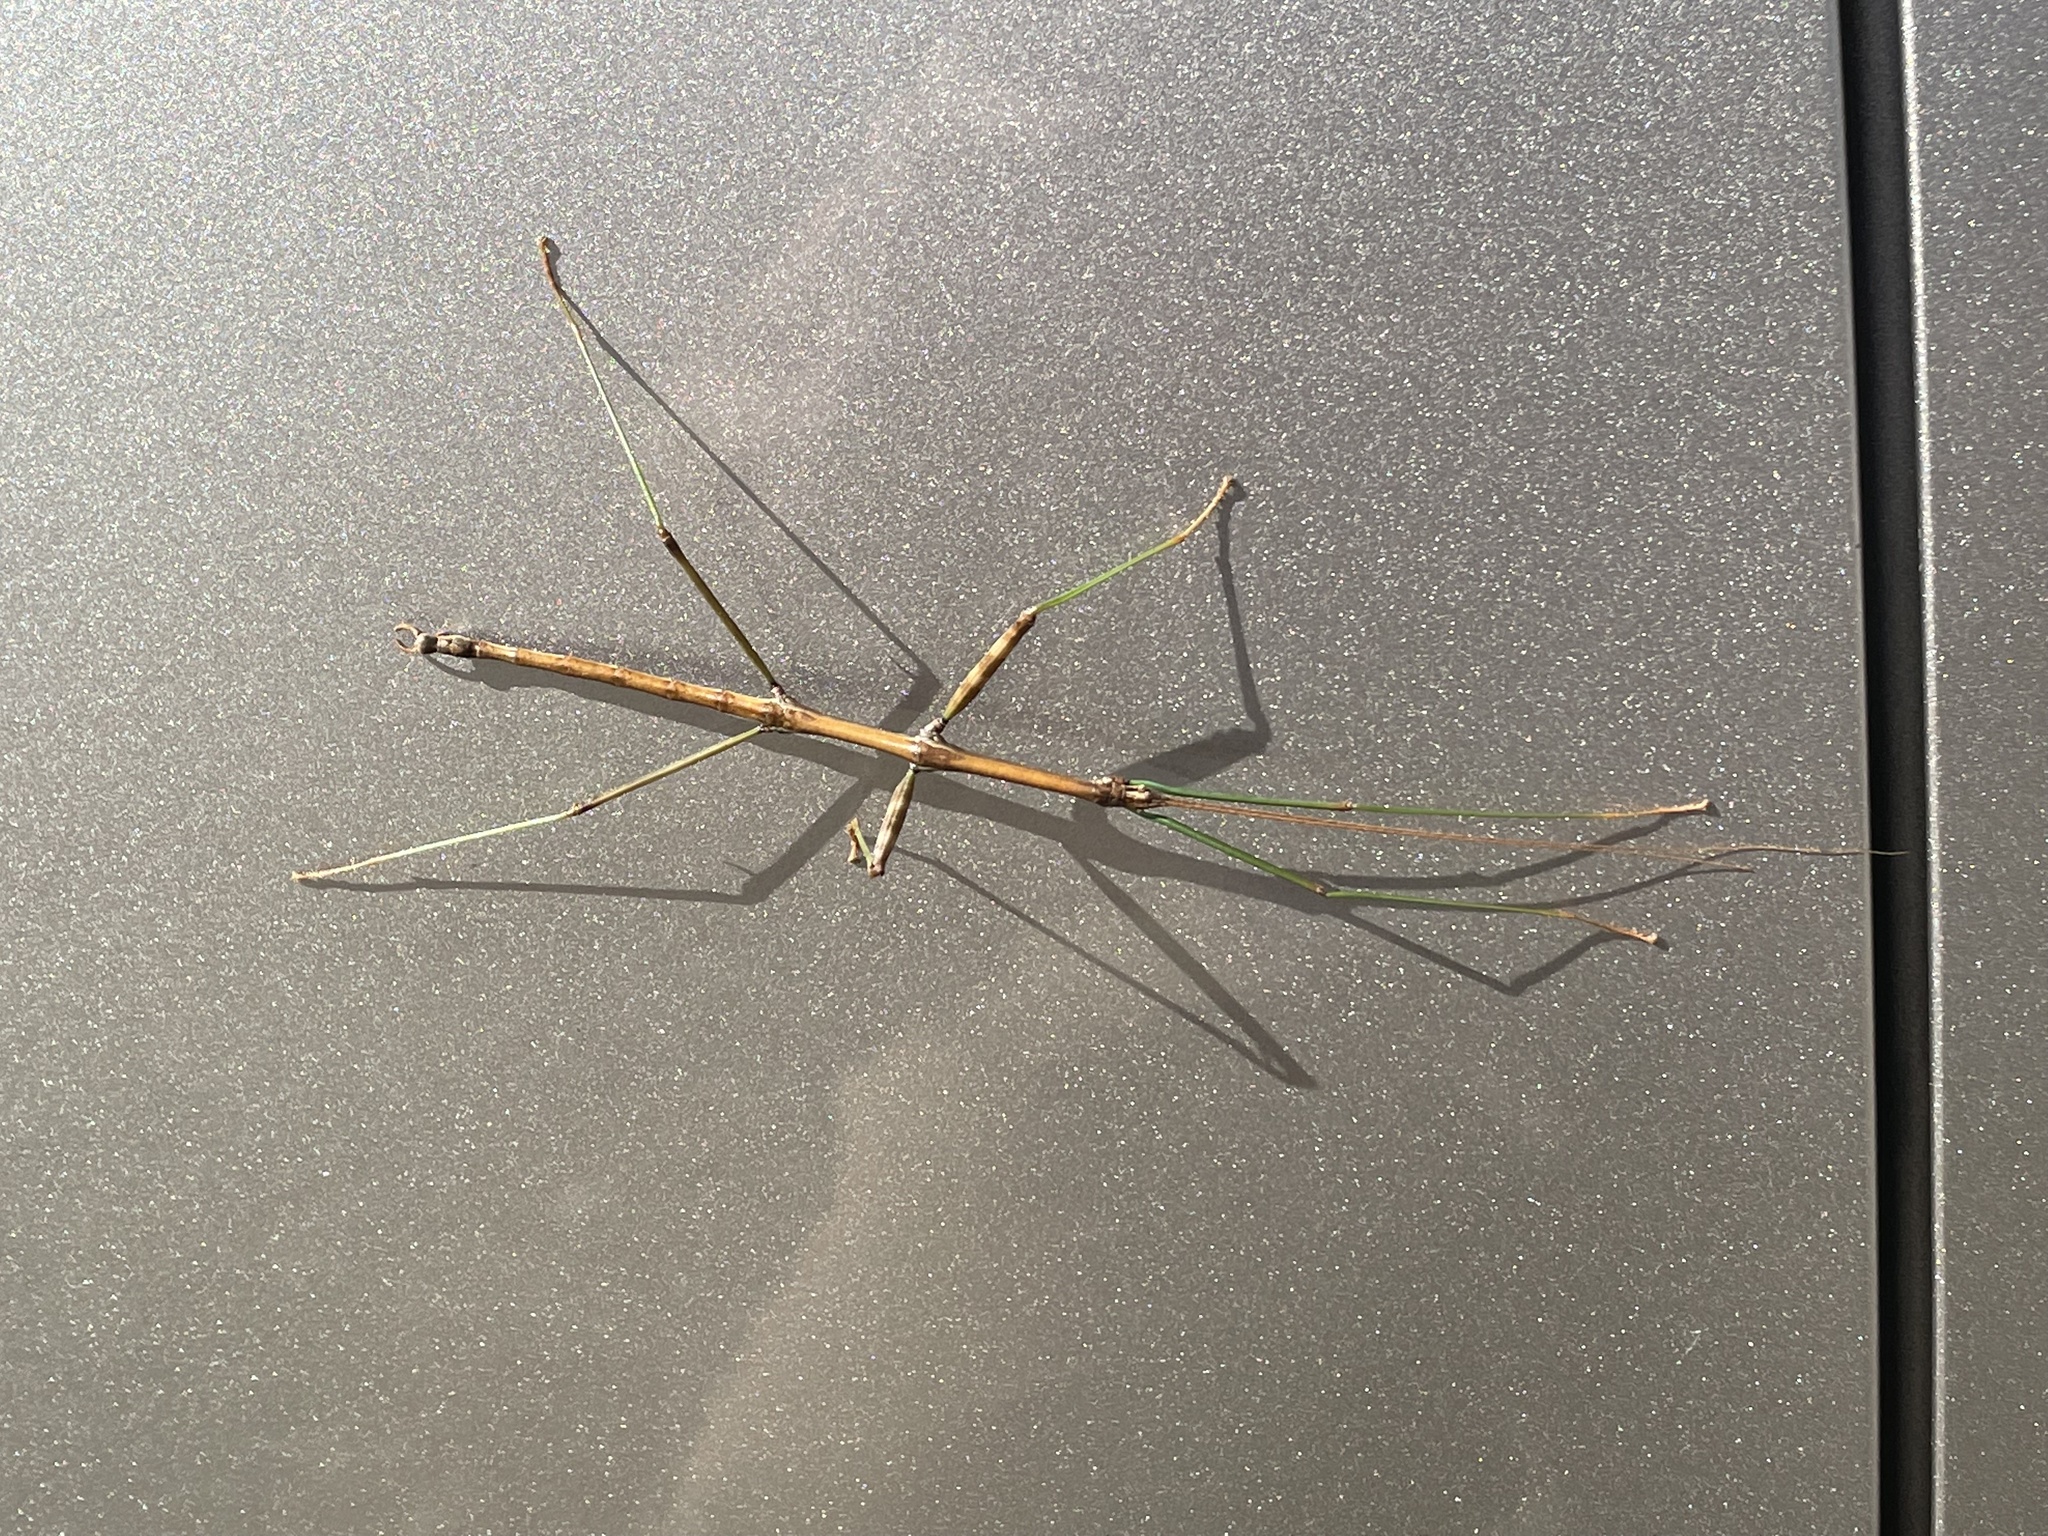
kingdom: Animalia
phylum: Arthropoda
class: Insecta
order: Phasmida
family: Diapheromeridae
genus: Diapheromera
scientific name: Diapheromera femorata
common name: Common american walkingstick
